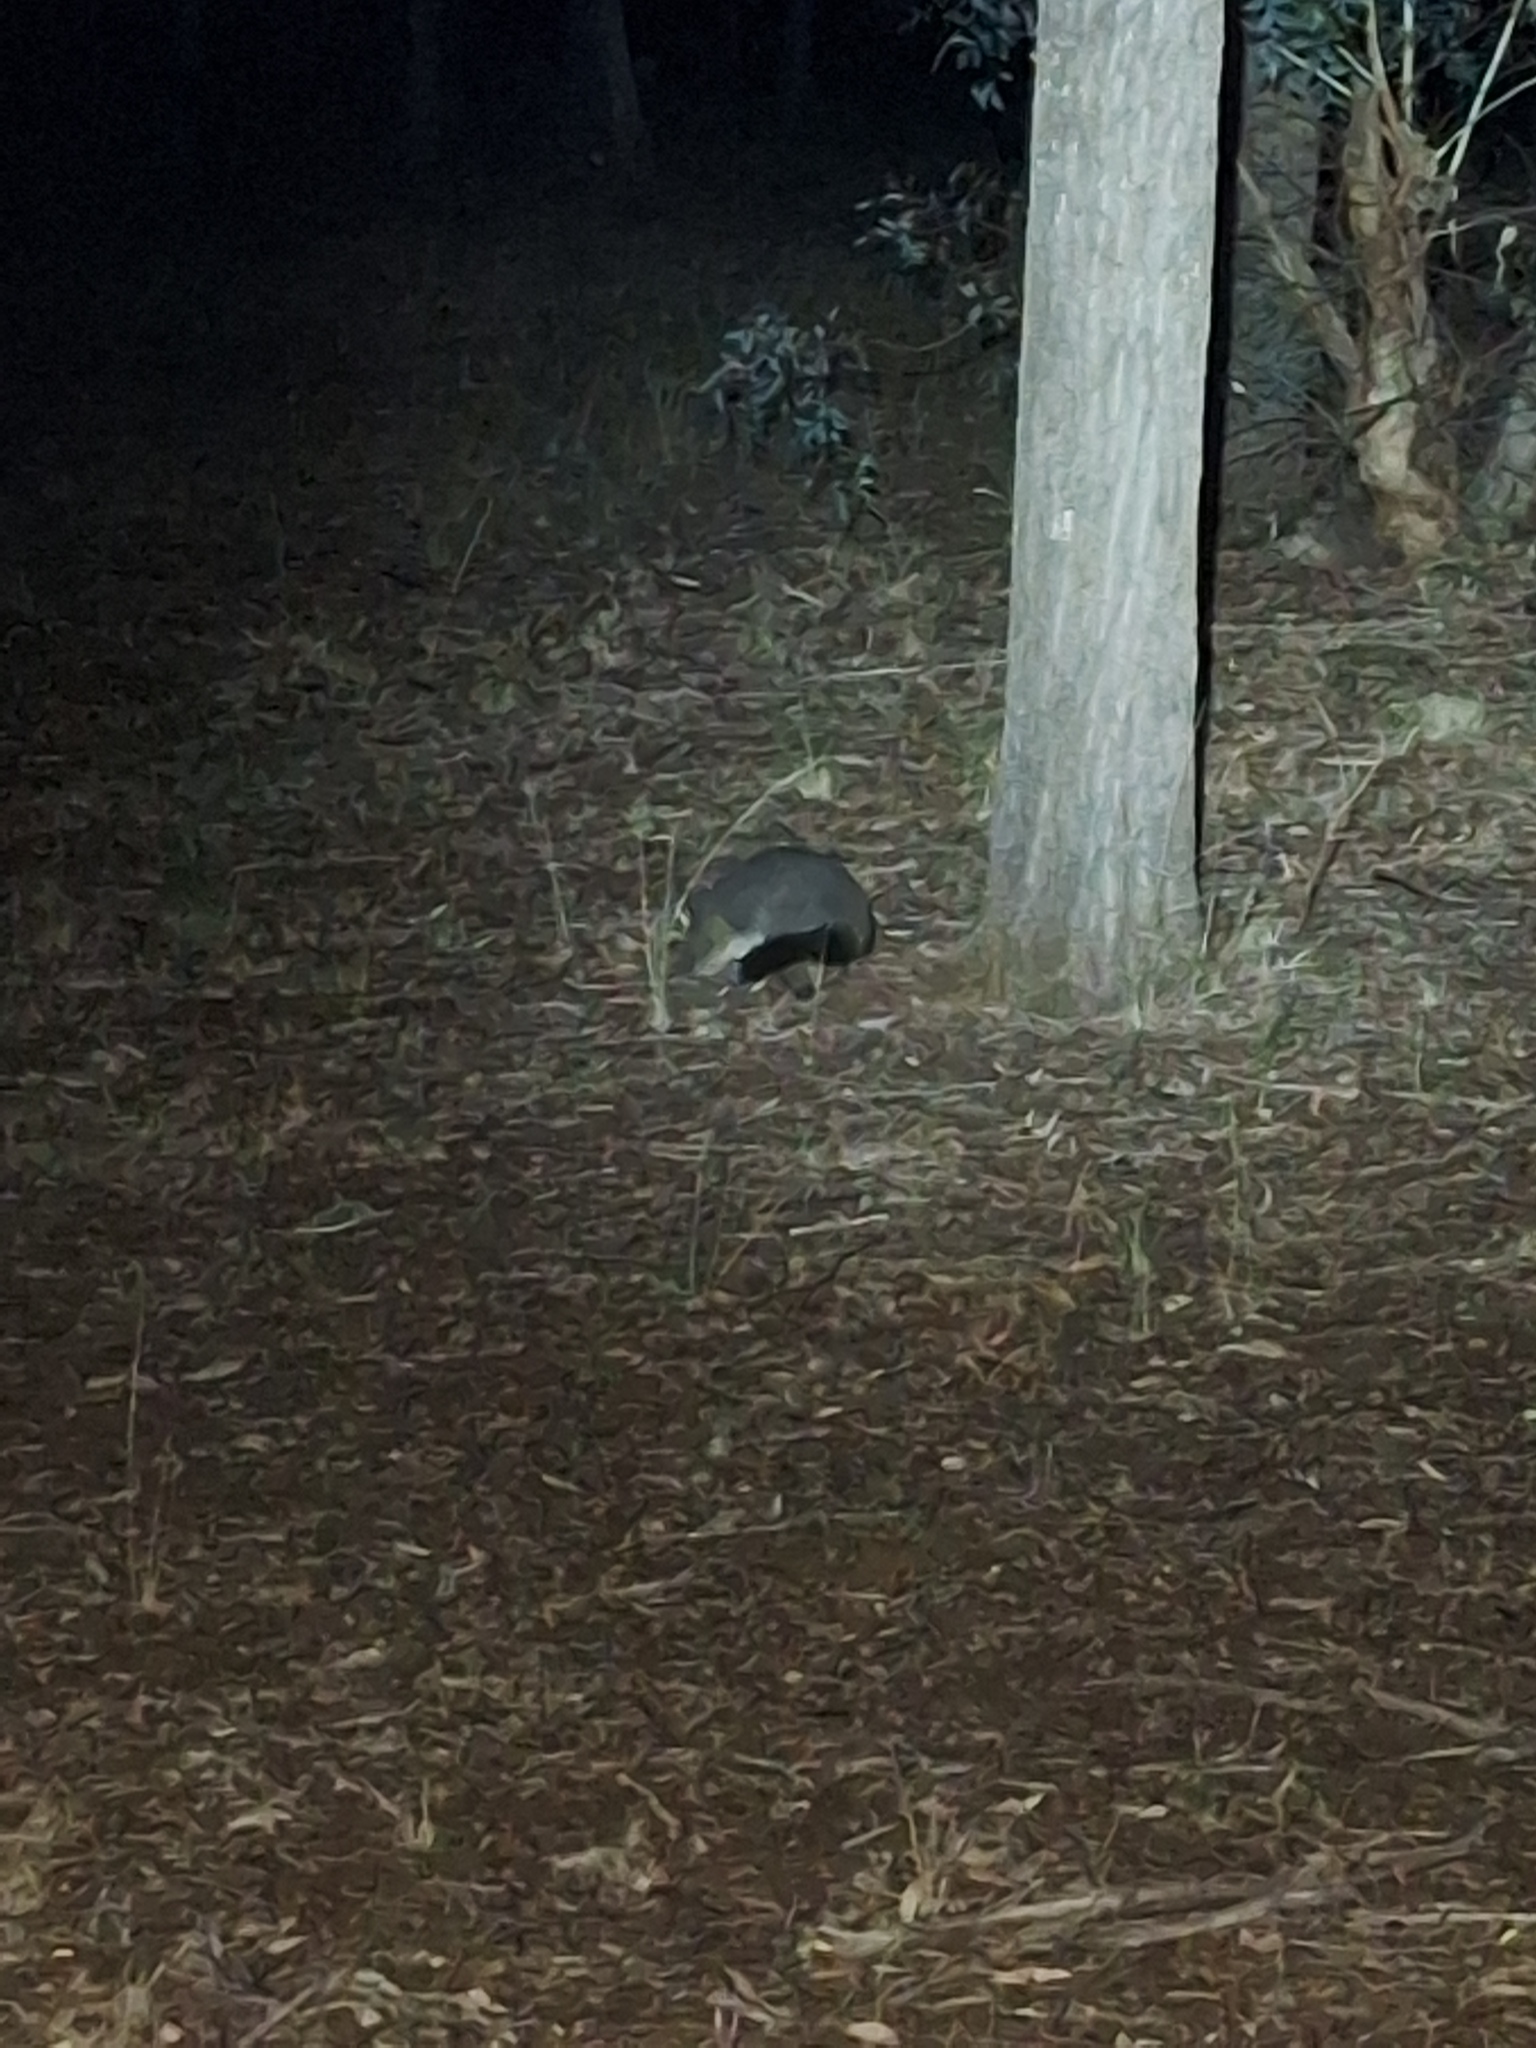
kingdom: Animalia
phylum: Chordata
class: Mammalia
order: Diprotodontia
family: Phalangeridae
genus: Trichosurus
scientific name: Trichosurus vulpecula
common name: Common brushtail
